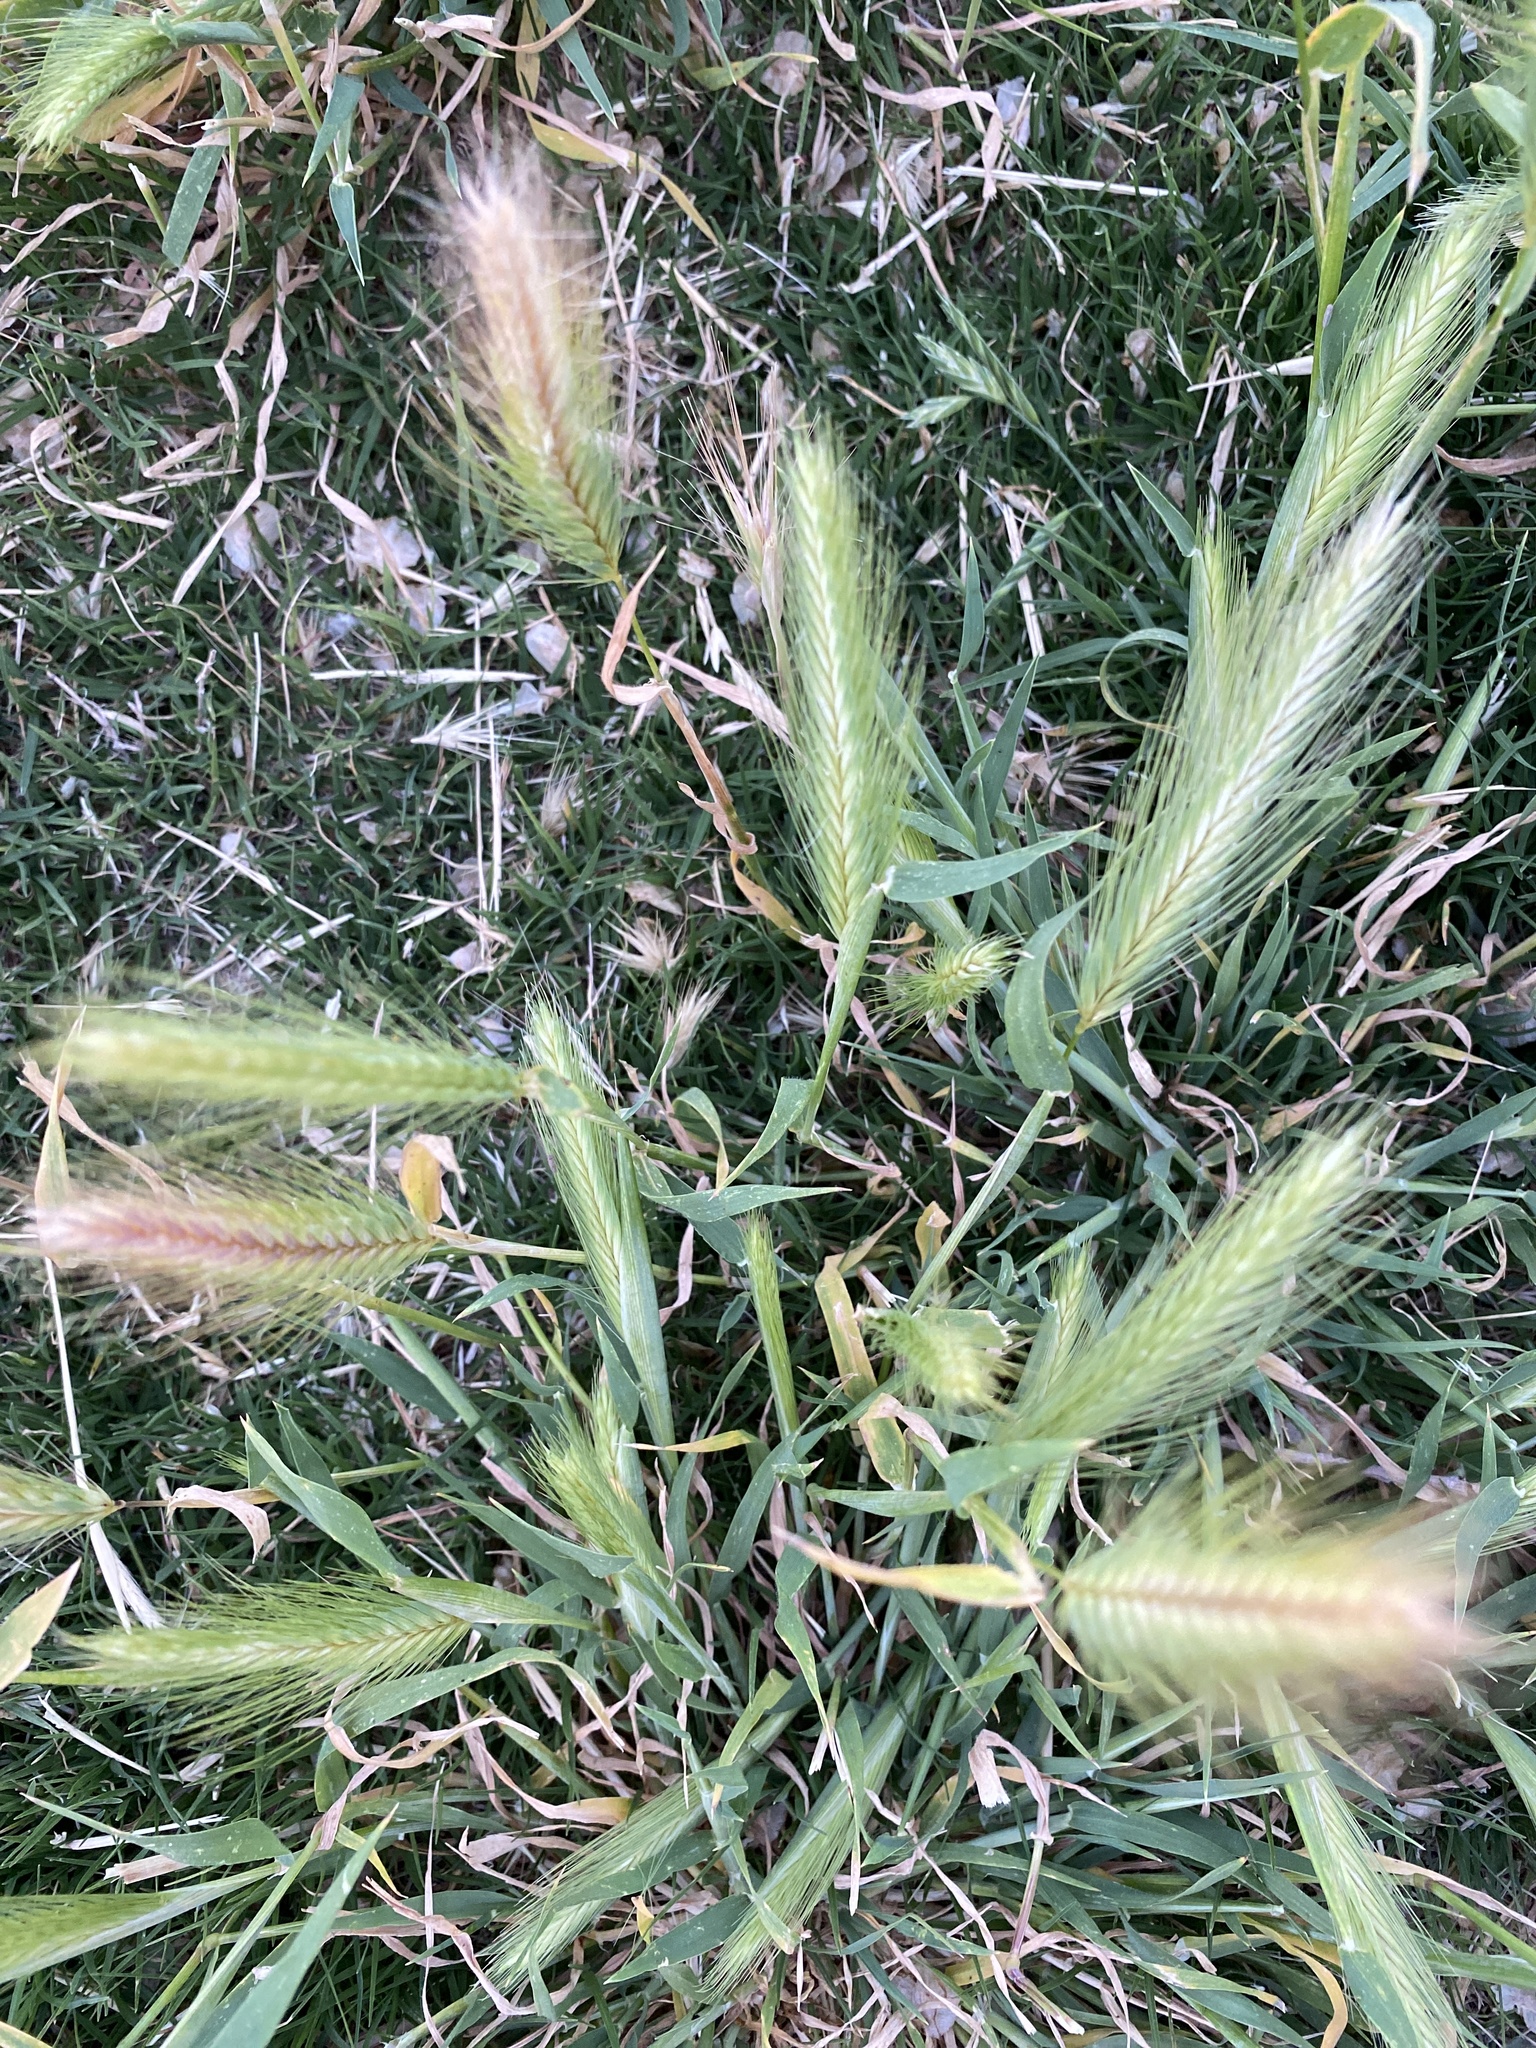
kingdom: Plantae
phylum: Tracheophyta
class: Liliopsida
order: Poales
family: Poaceae
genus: Hordeum
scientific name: Hordeum murinum
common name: Wall barley
